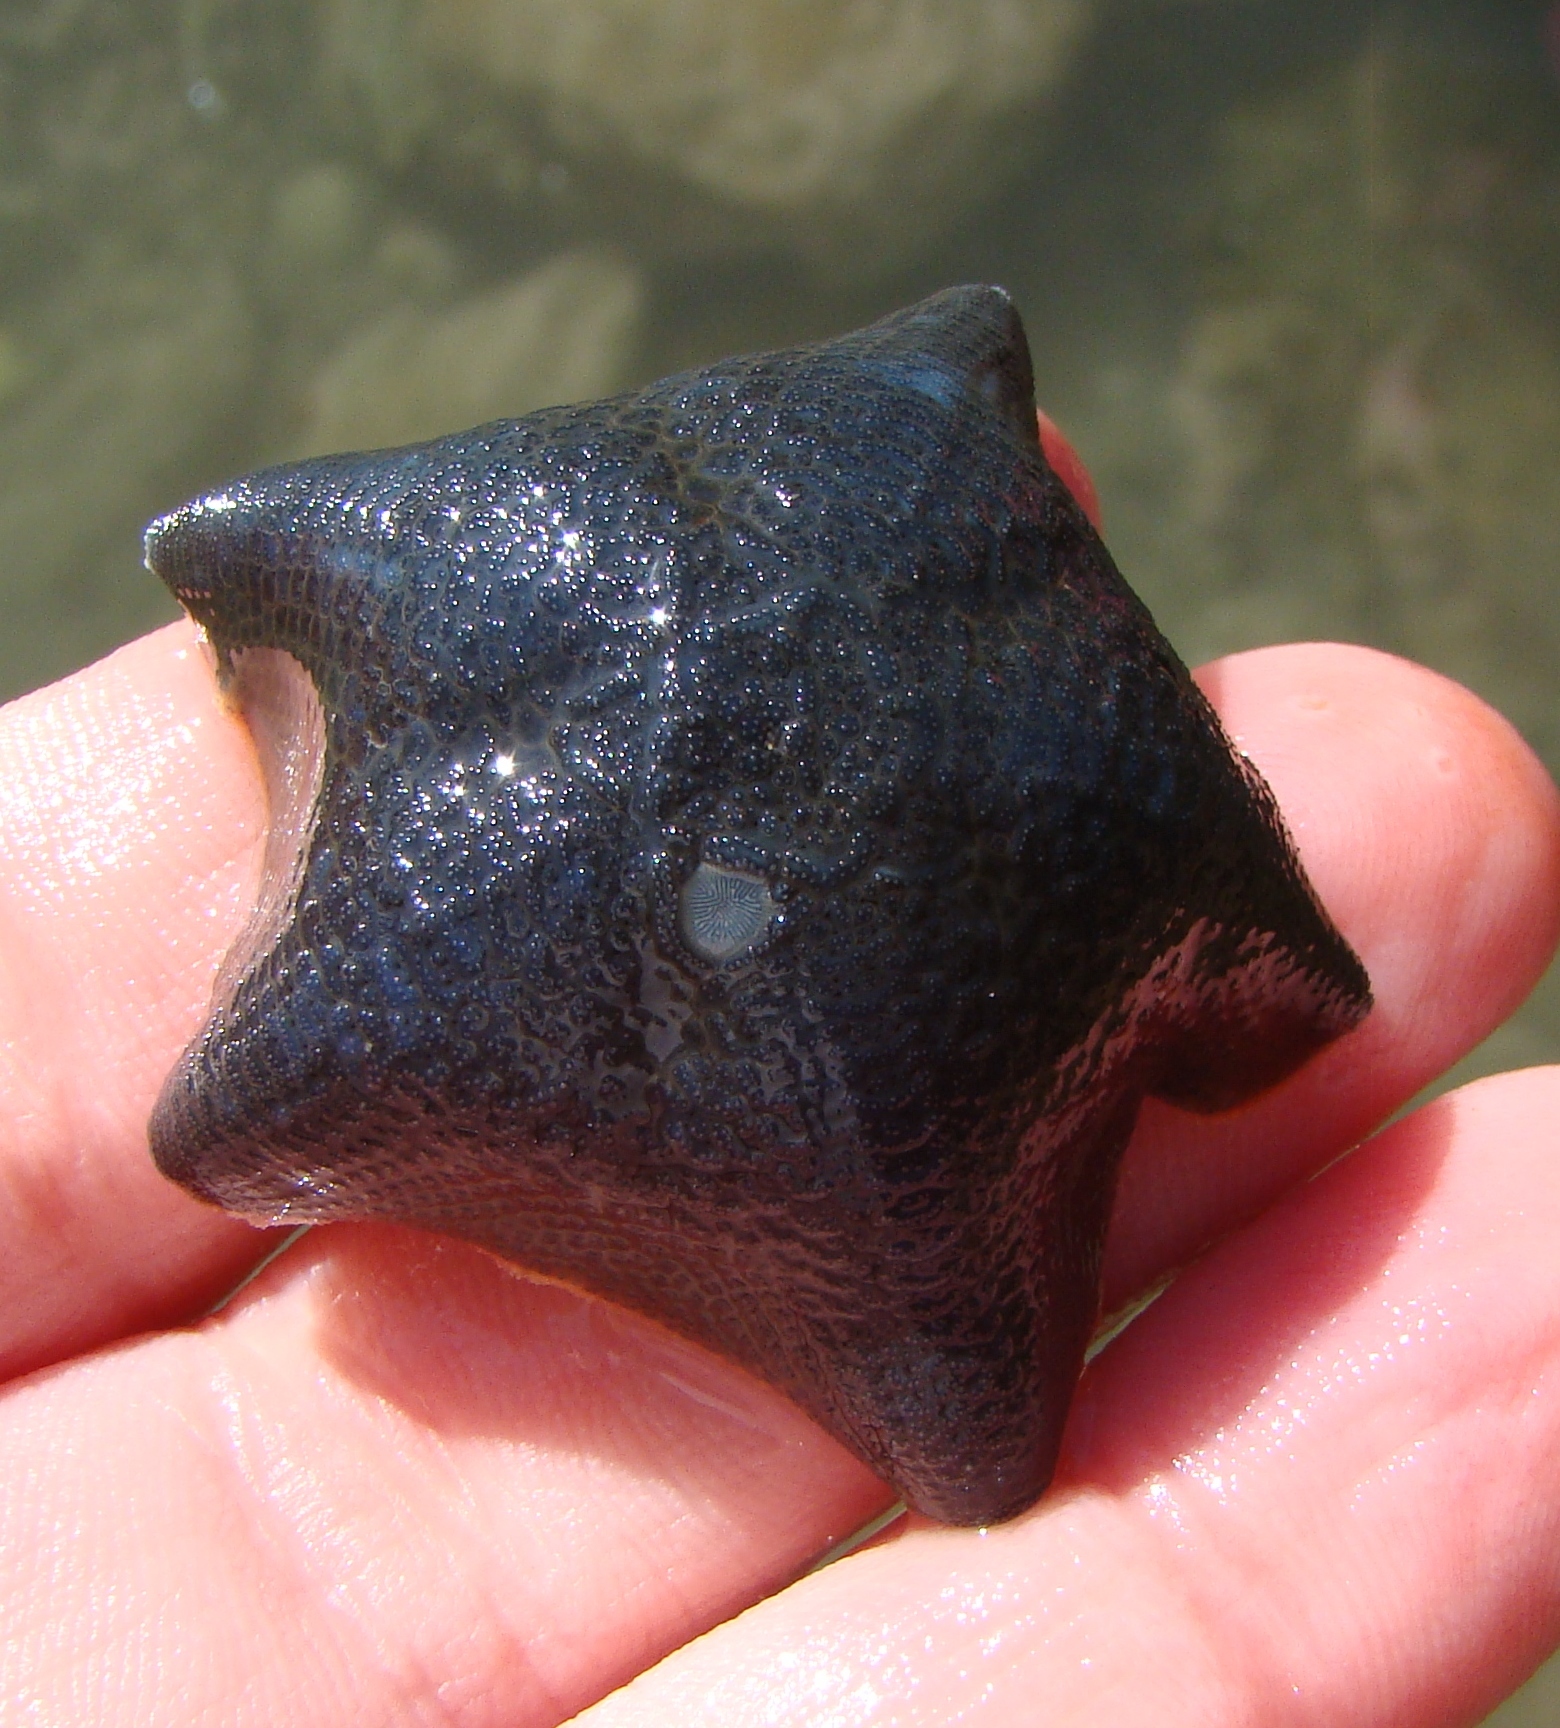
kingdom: Animalia
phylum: Echinodermata
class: Asteroidea
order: Valvatida
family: Asterinidae
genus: Patiriella
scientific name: Patiriella regularis
